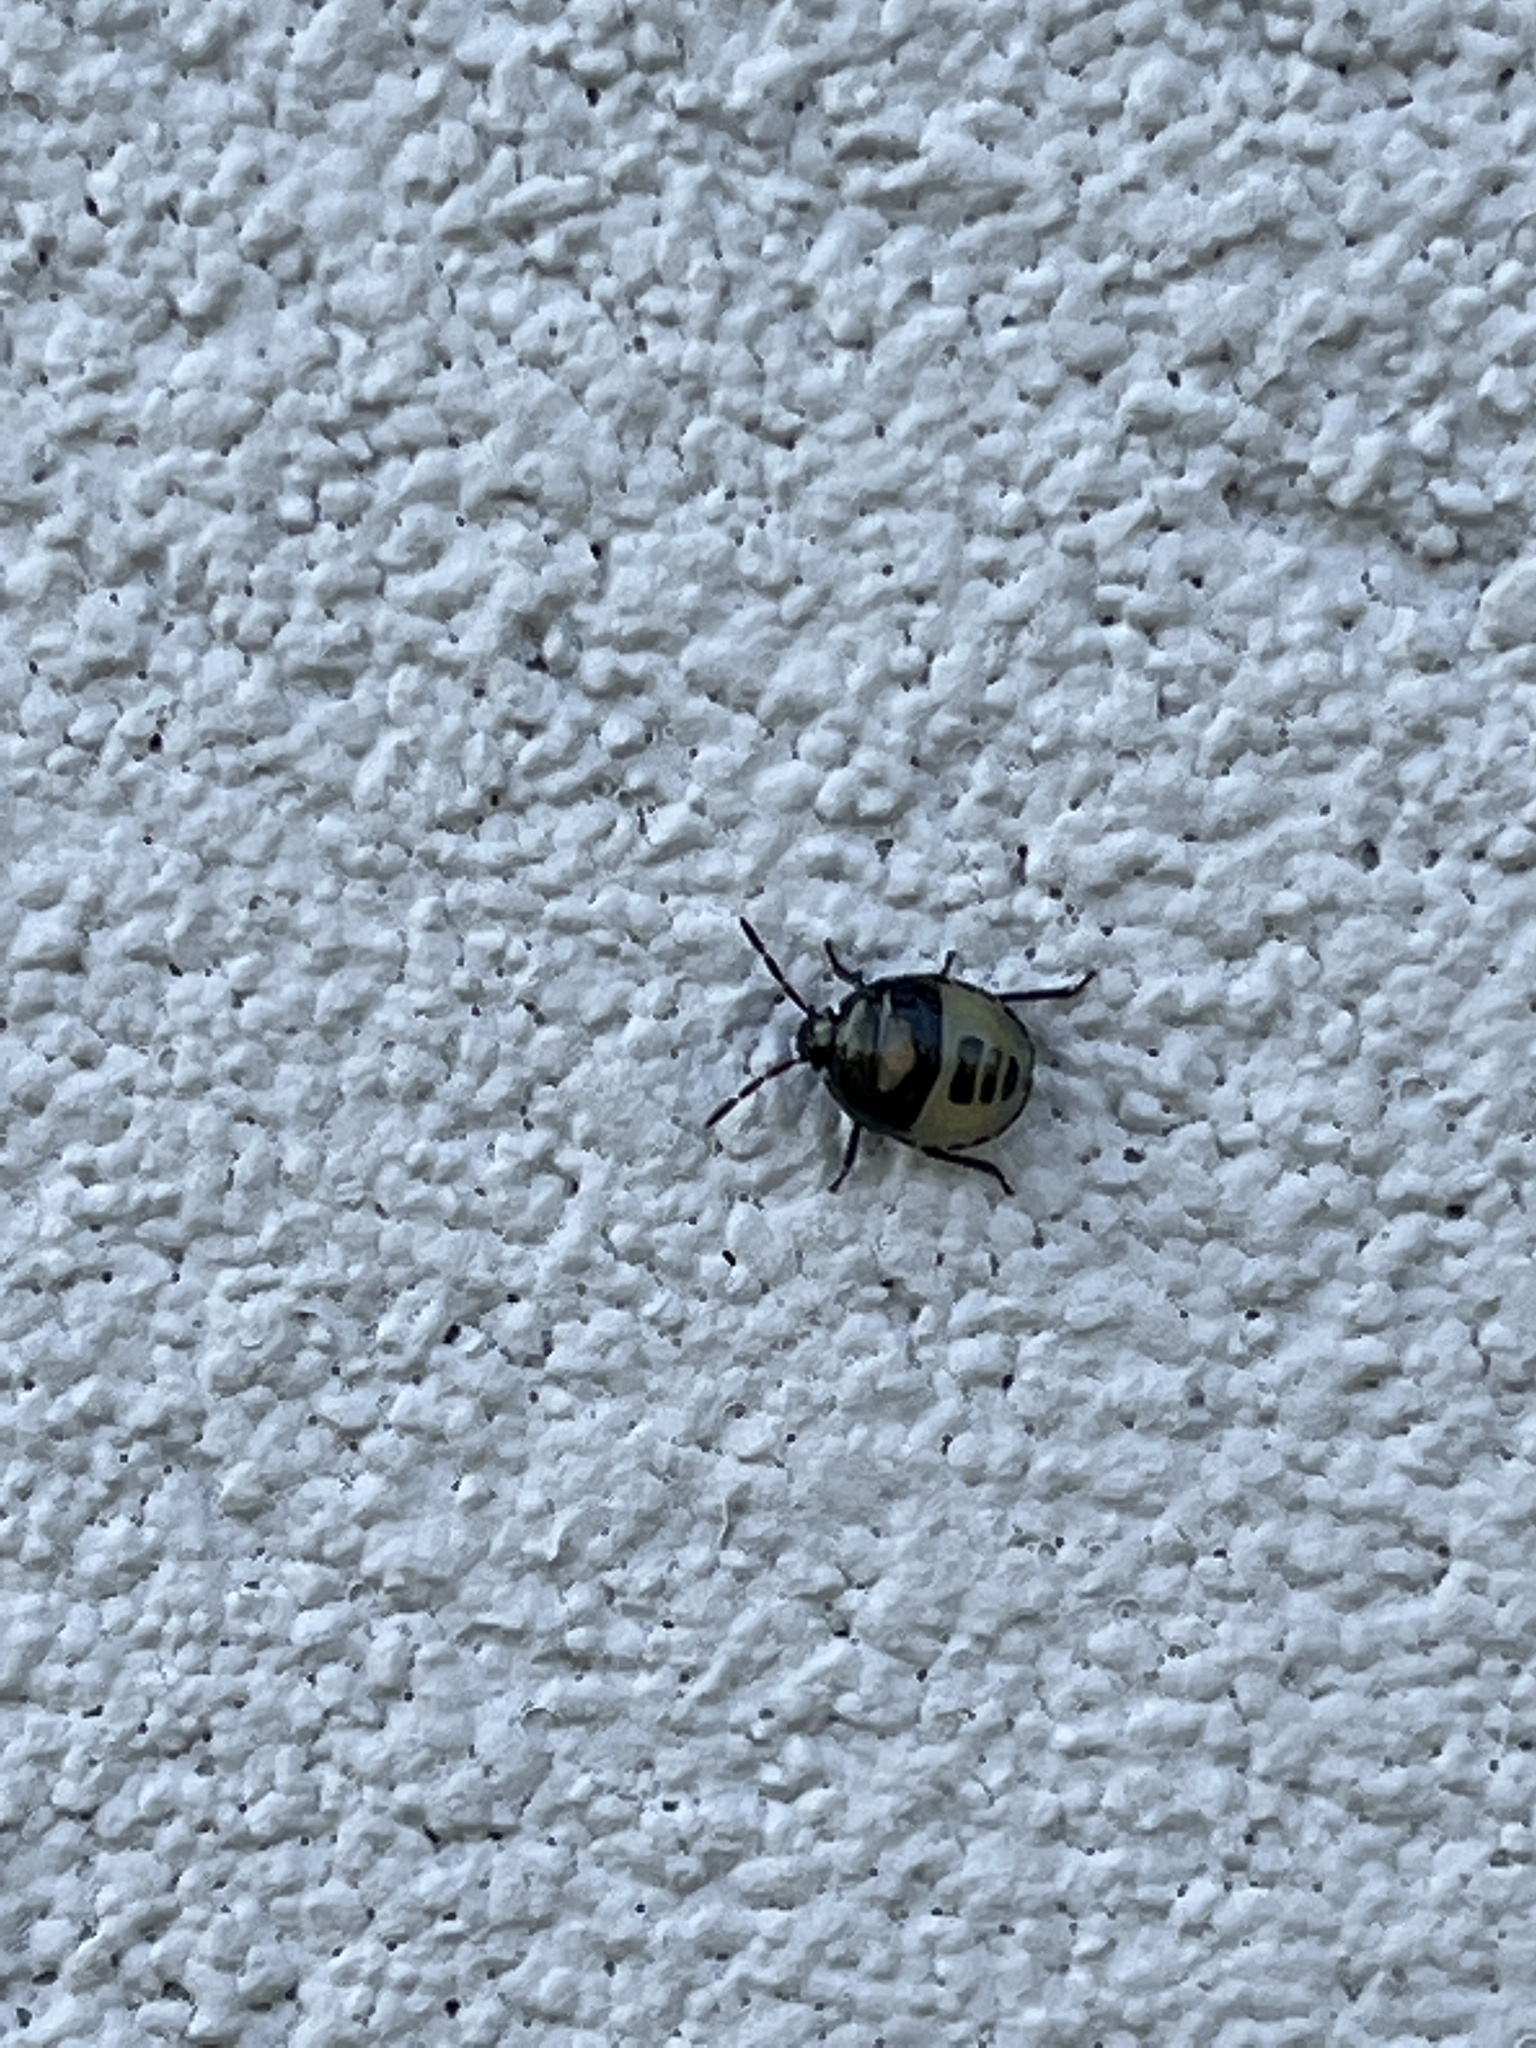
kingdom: Animalia
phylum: Arthropoda
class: Insecta
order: Hemiptera
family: Cydnidae
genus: Tritomegas
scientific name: Tritomegas bicolor
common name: Pied shieldbug
